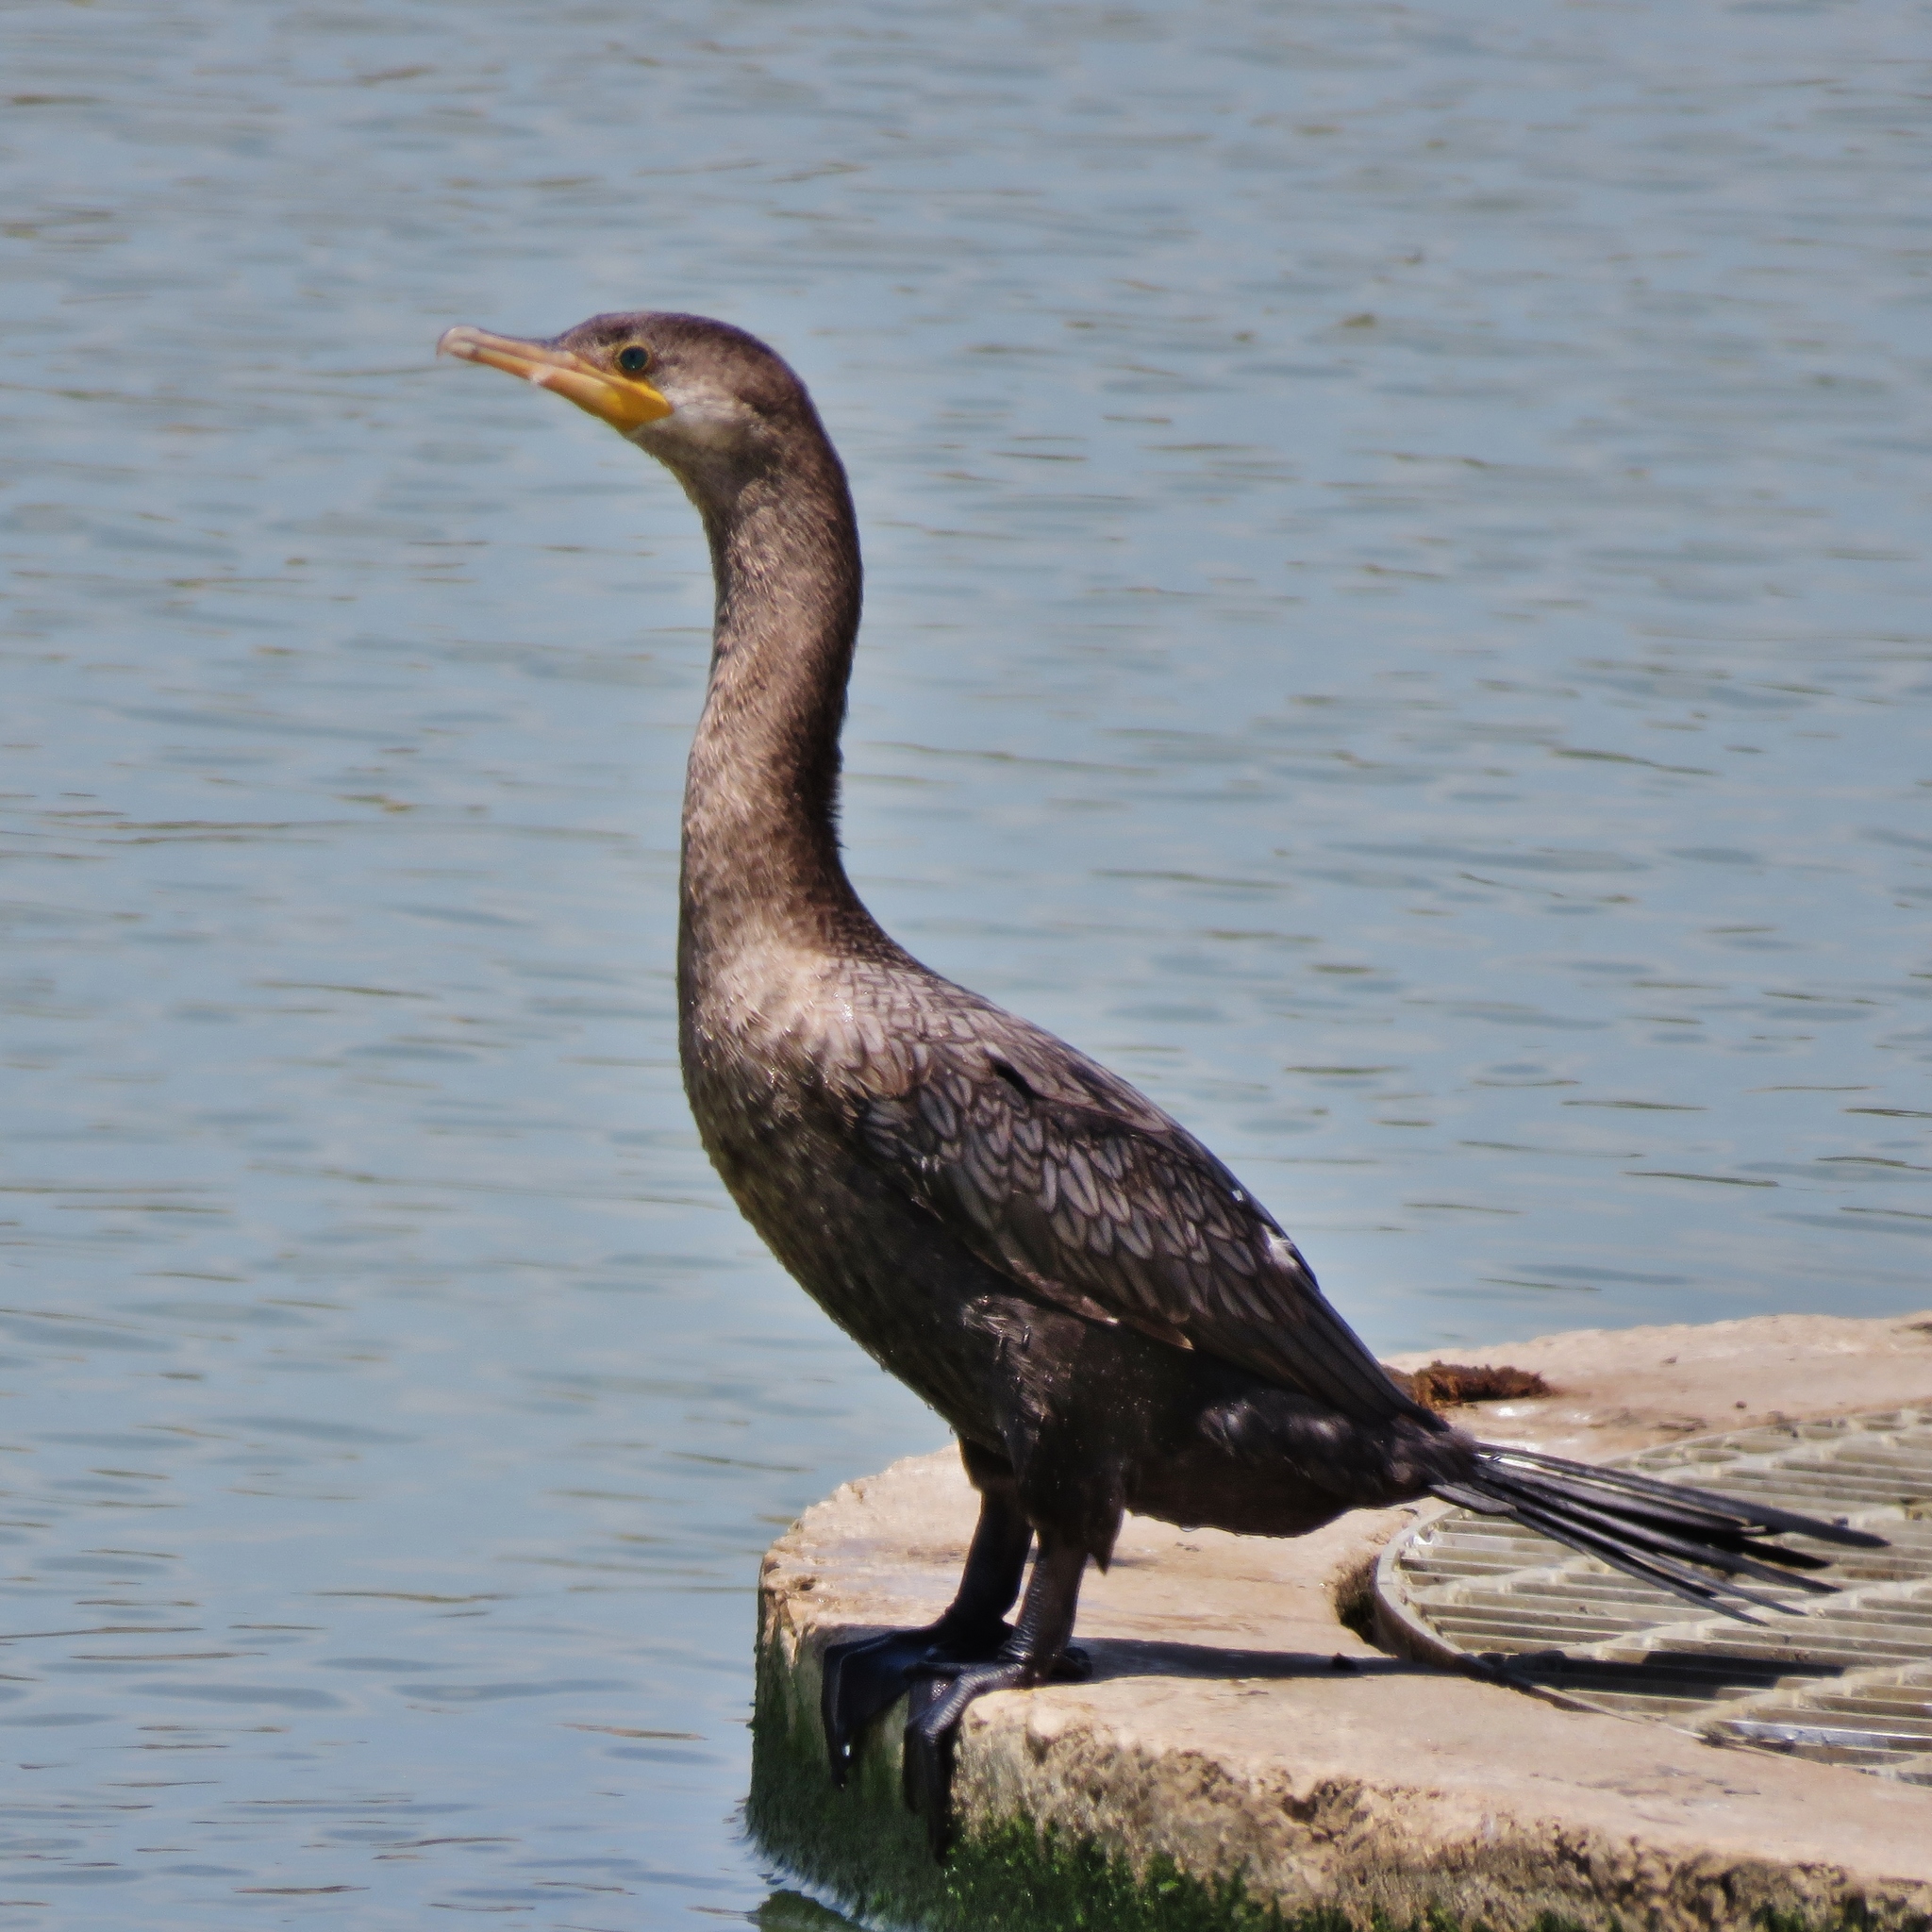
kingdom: Animalia
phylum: Chordata
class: Aves
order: Suliformes
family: Phalacrocoracidae
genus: Phalacrocorax
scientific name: Phalacrocorax brasilianus
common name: Neotropic cormorant
